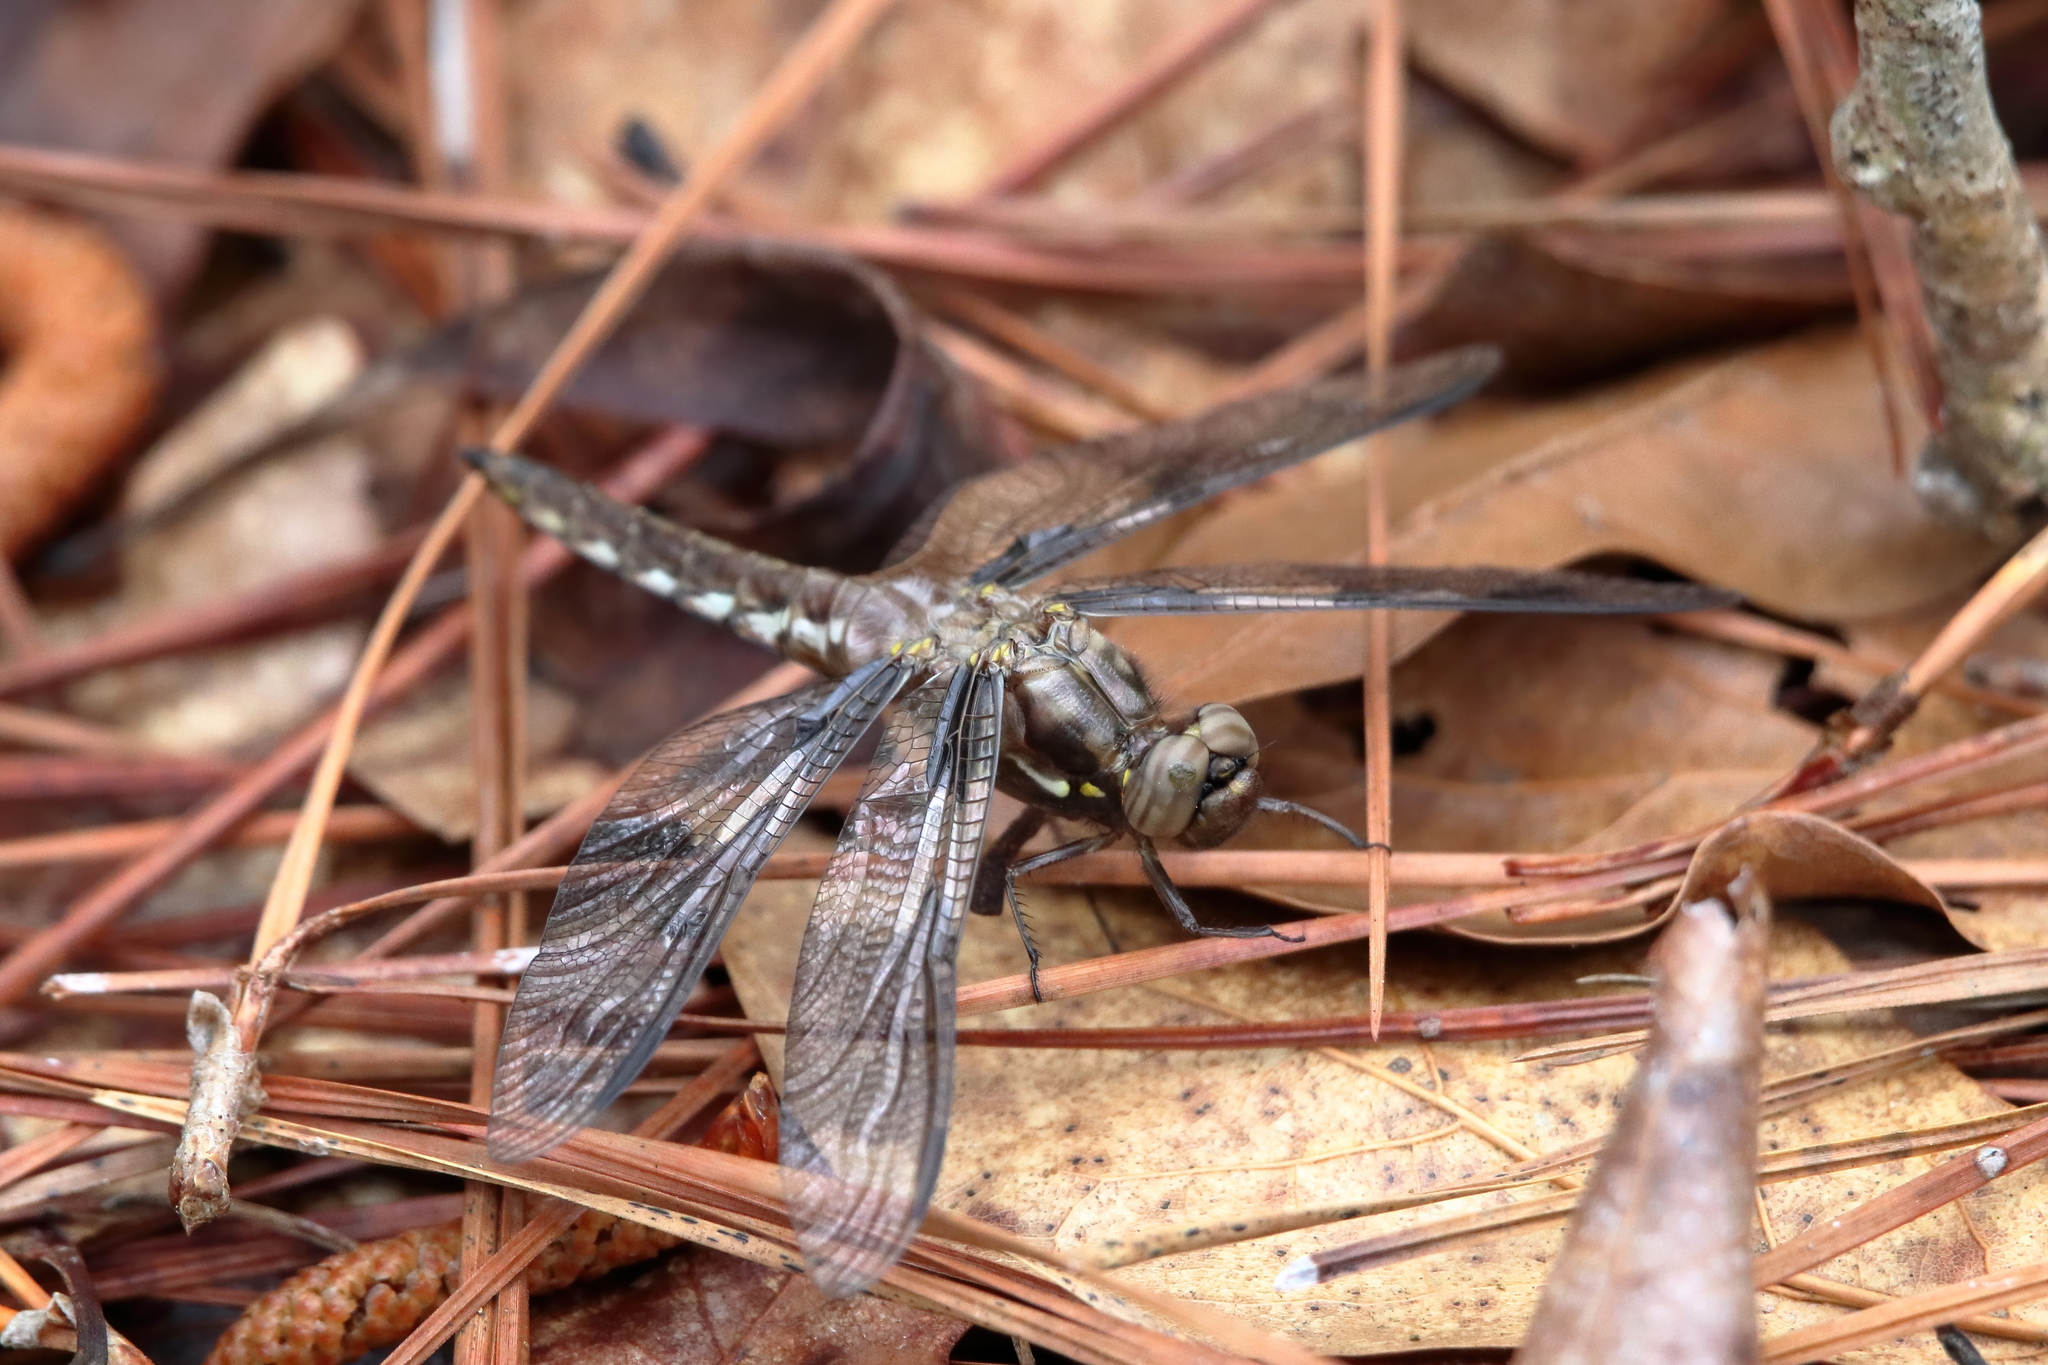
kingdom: Animalia
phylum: Arthropoda
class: Insecta
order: Odonata
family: Libellulidae
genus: Plathemis
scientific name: Plathemis lydia
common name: Common whitetail
